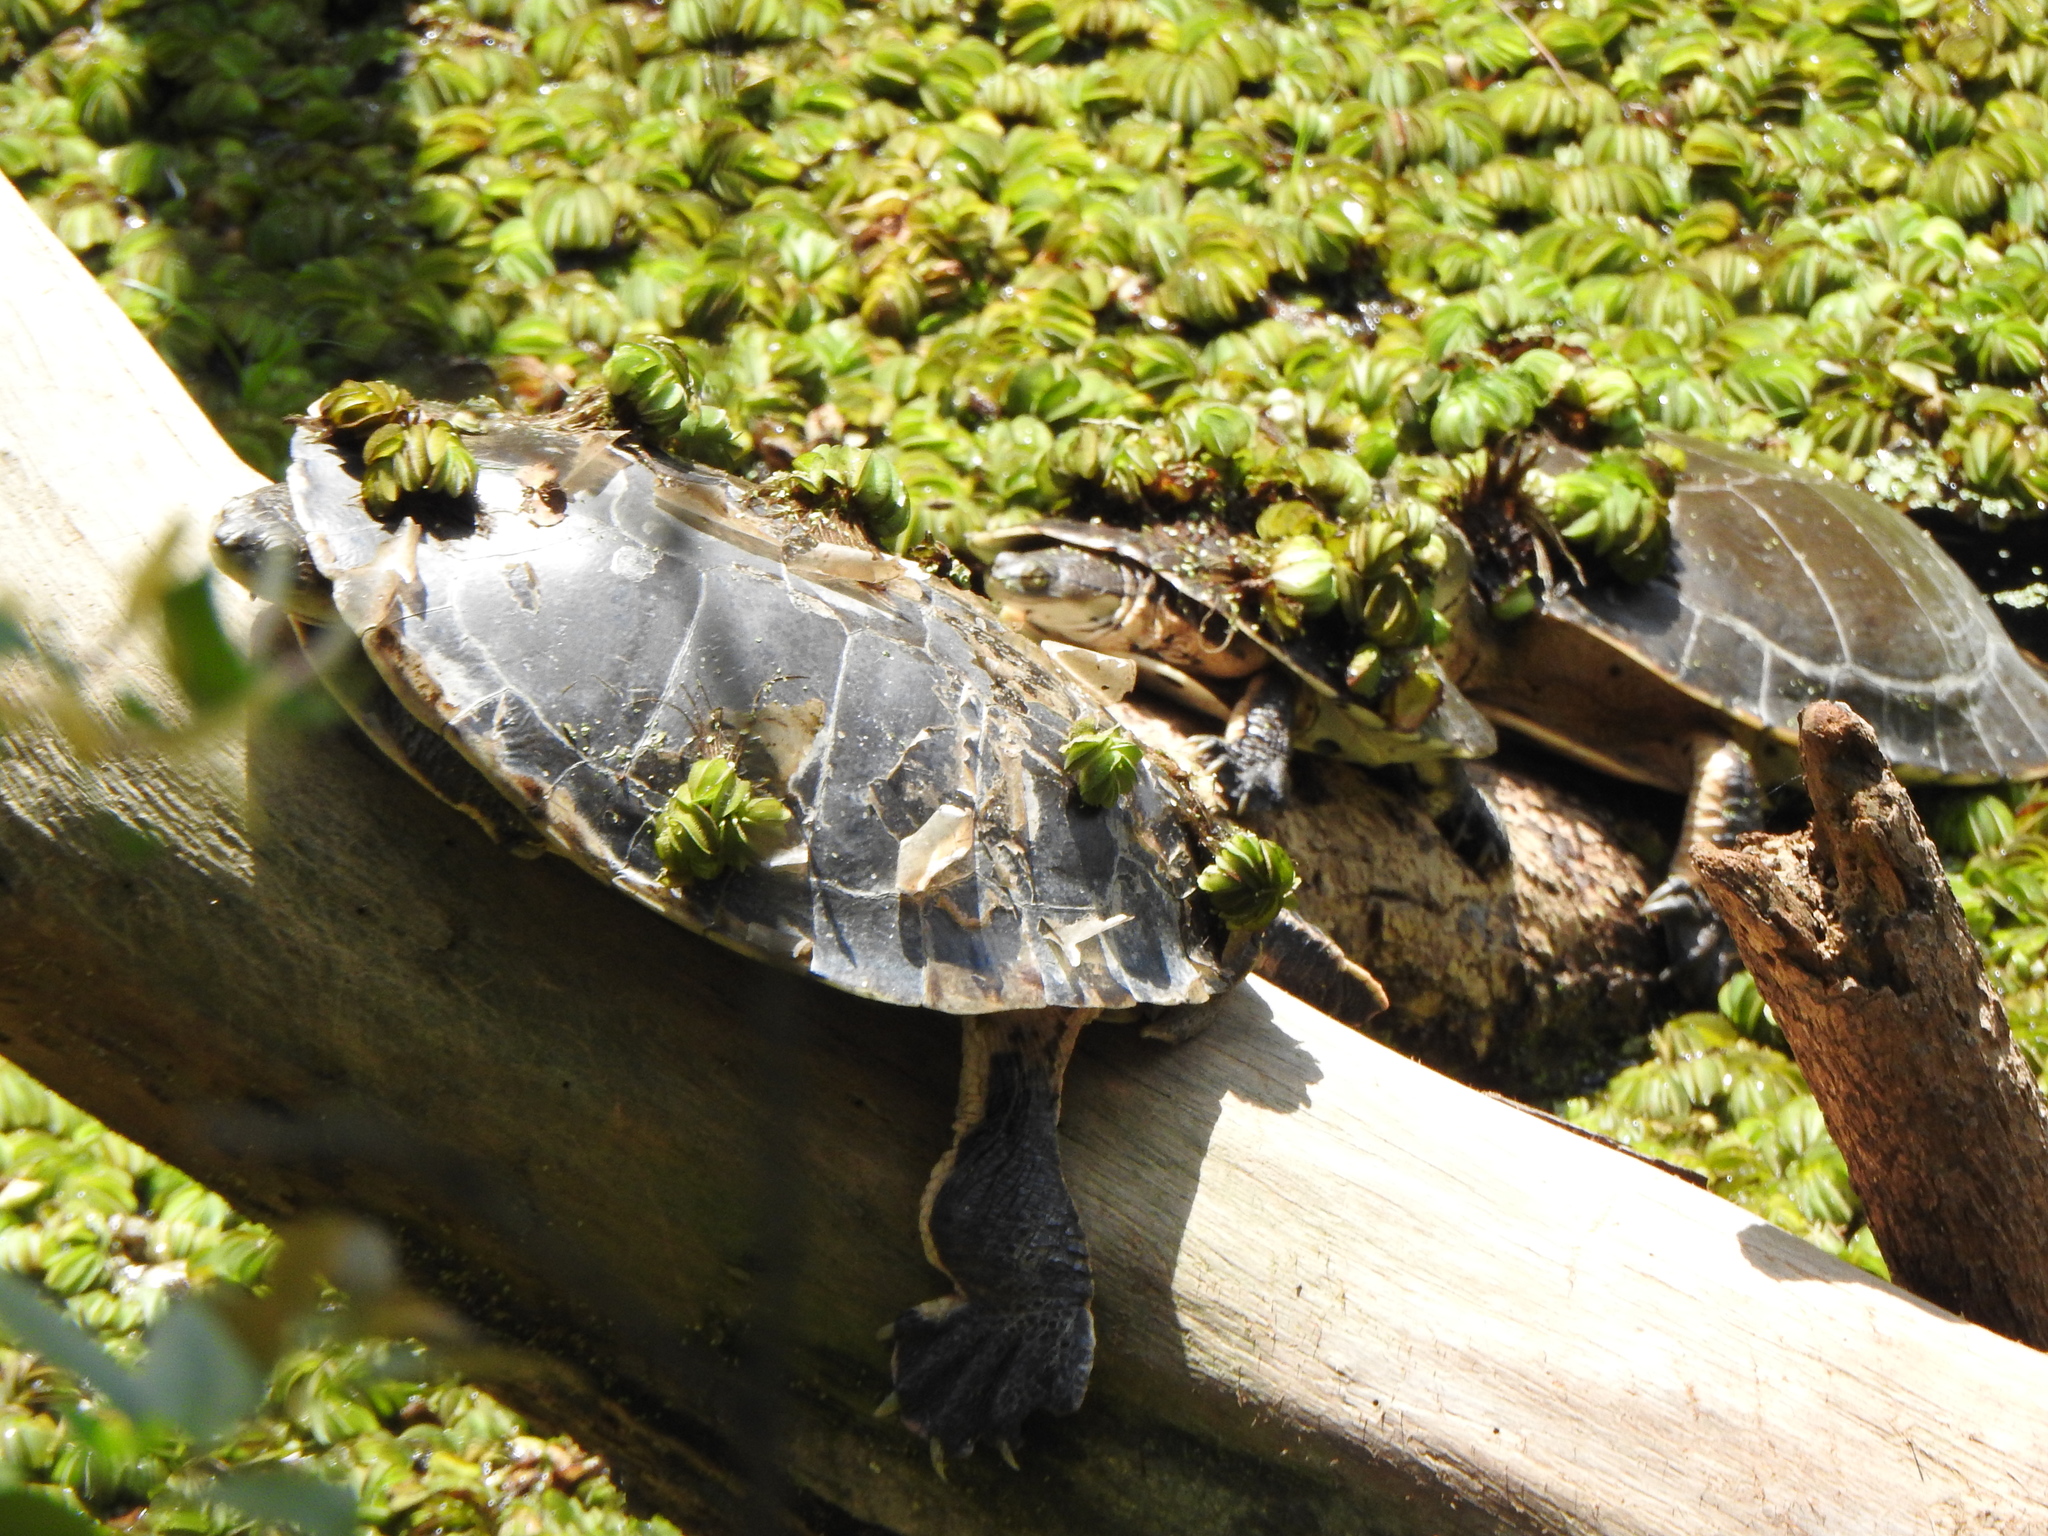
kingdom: Animalia
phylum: Chordata
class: Testudines
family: Chelidae
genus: Phrynops
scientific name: Phrynops hilarii
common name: Side-necked turtle of saint hillaire
